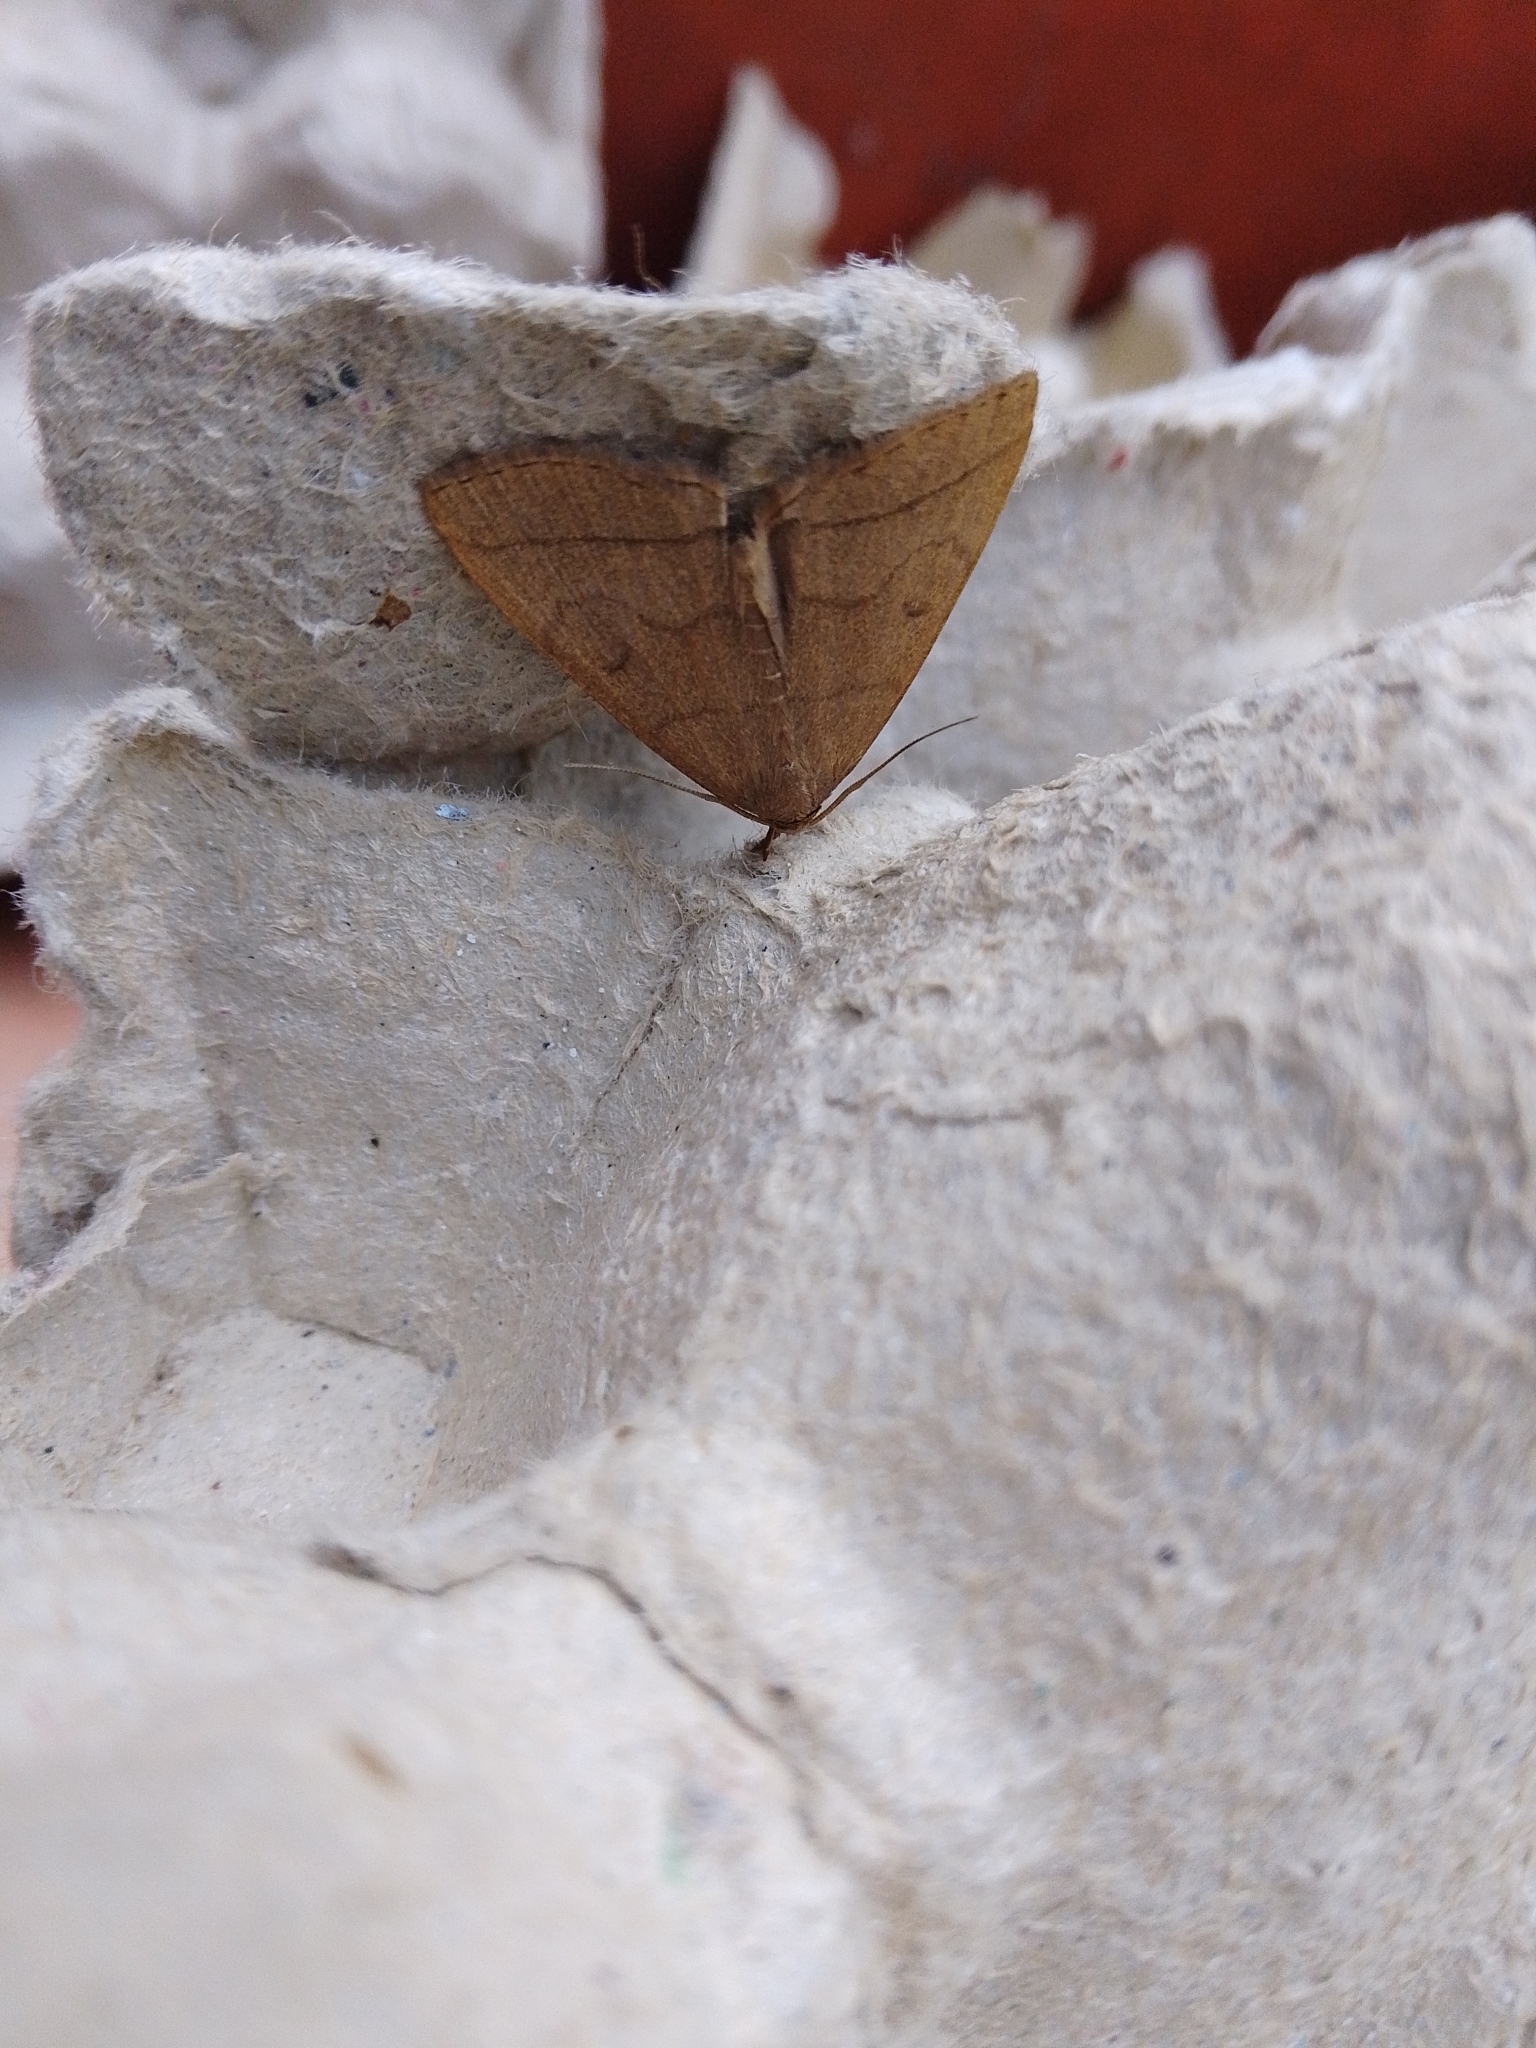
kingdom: Animalia
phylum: Arthropoda
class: Insecta
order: Lepidoptera
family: Erebidae
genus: Herminia
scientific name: Herminia tarsipennalis
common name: Fan-foot
